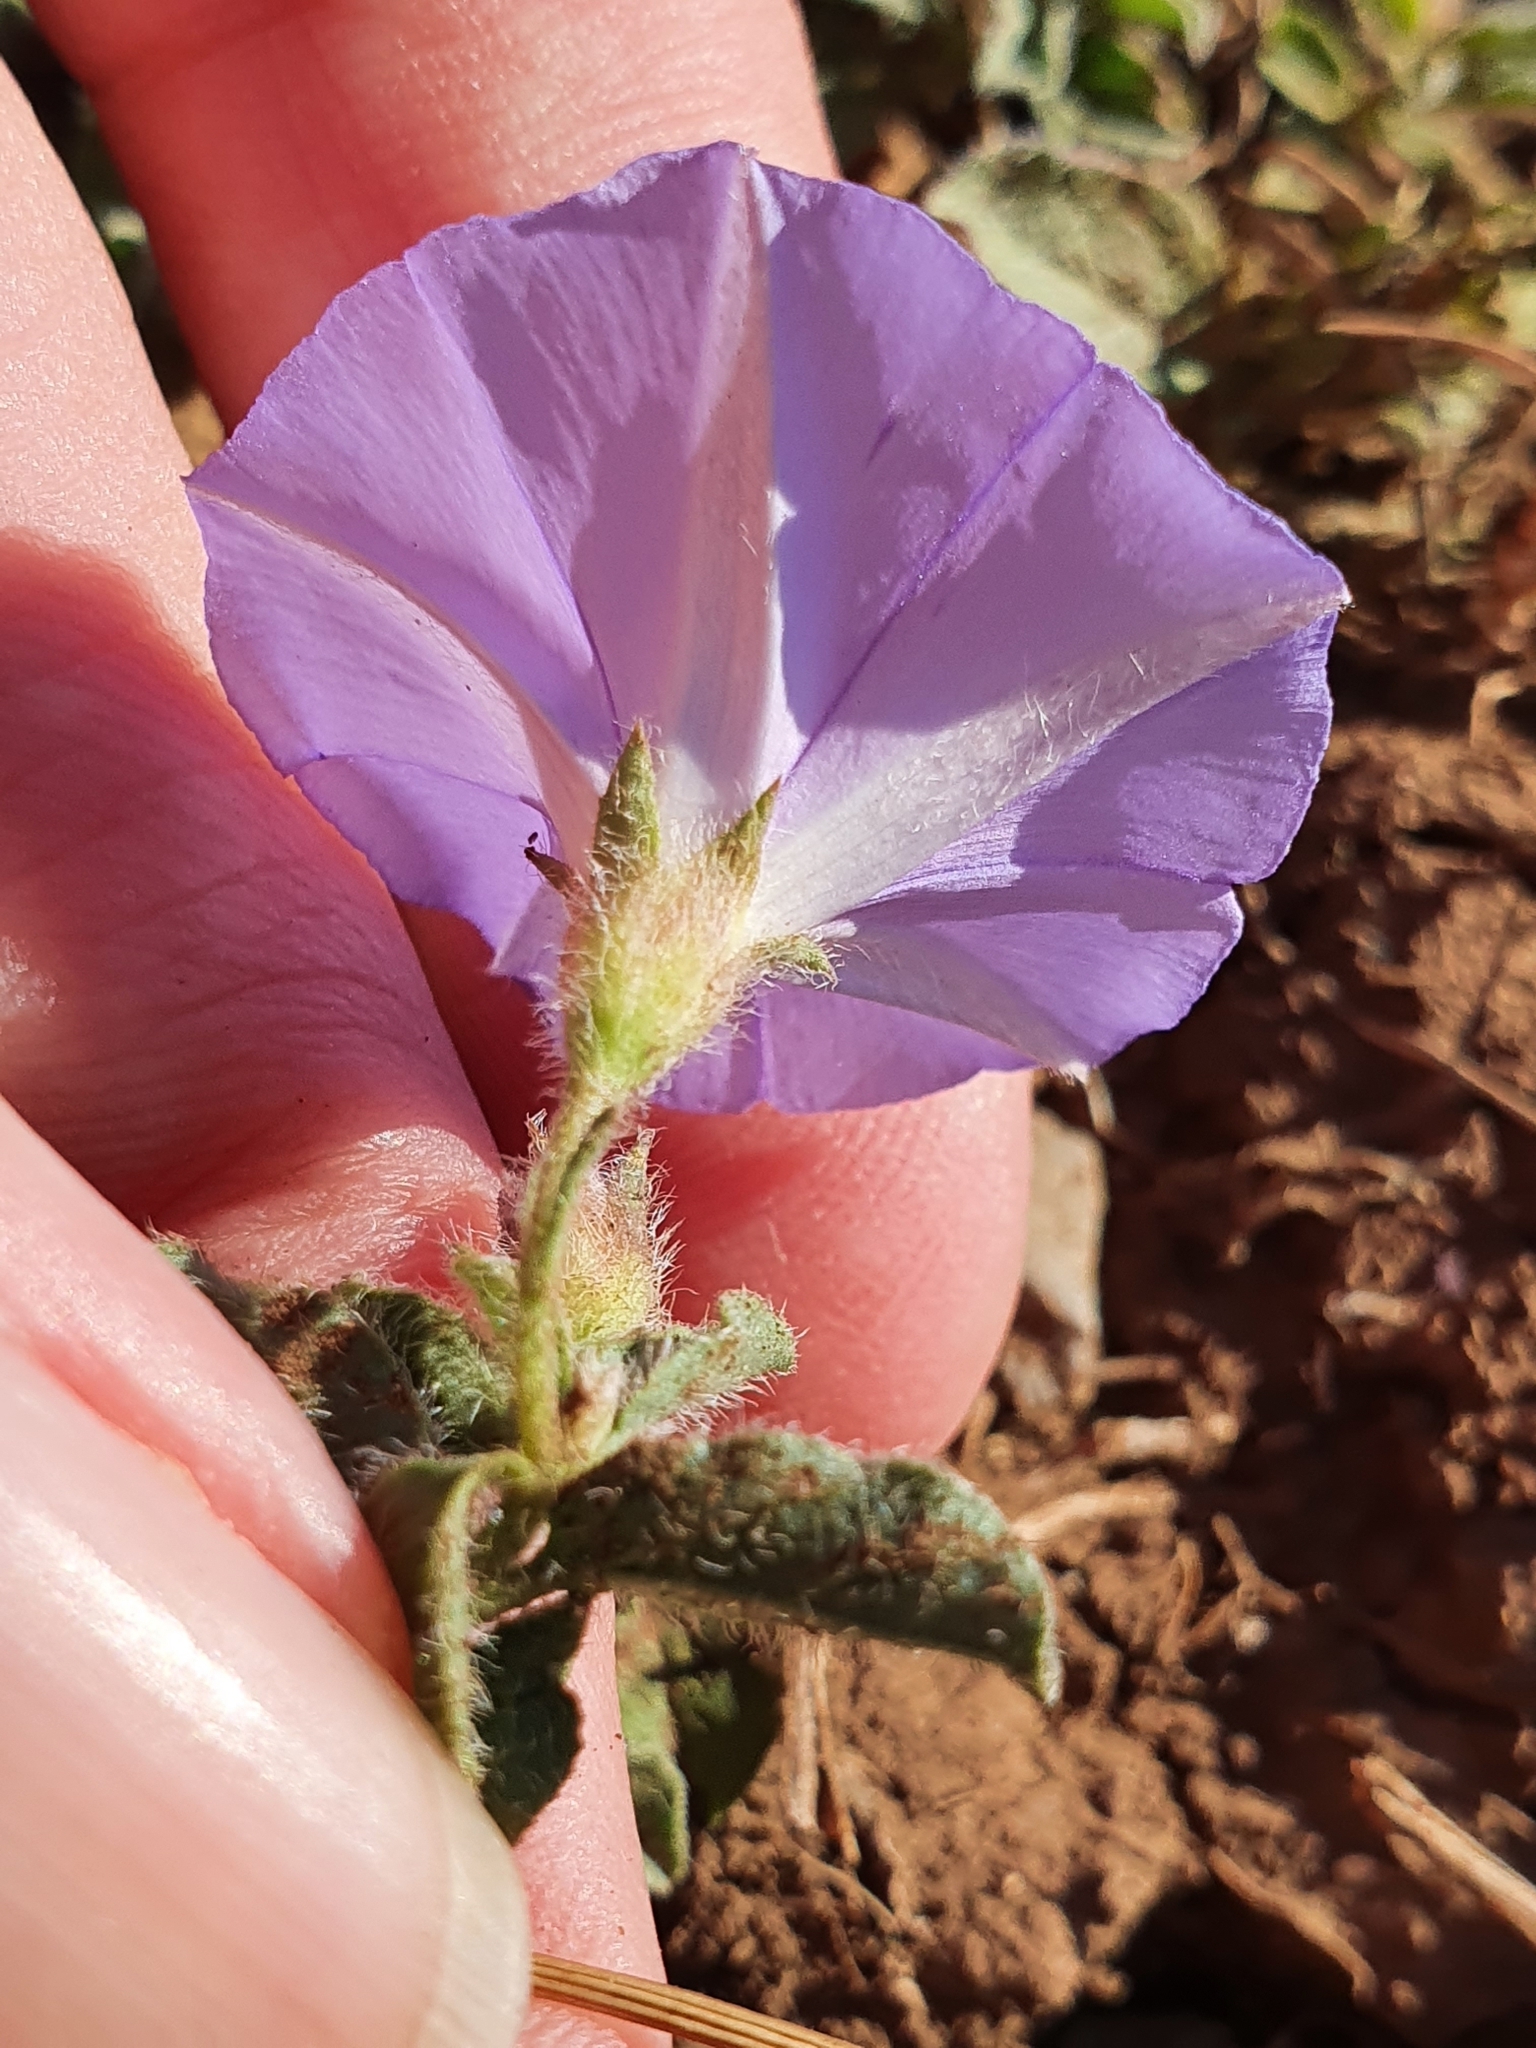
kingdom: Plantae
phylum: Tracheophyta
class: Magnoliopsida
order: Solanales
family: Convolvulaceae
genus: Convolvulus
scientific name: Convolvulus sabatius
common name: Ground blue-convolvulus
